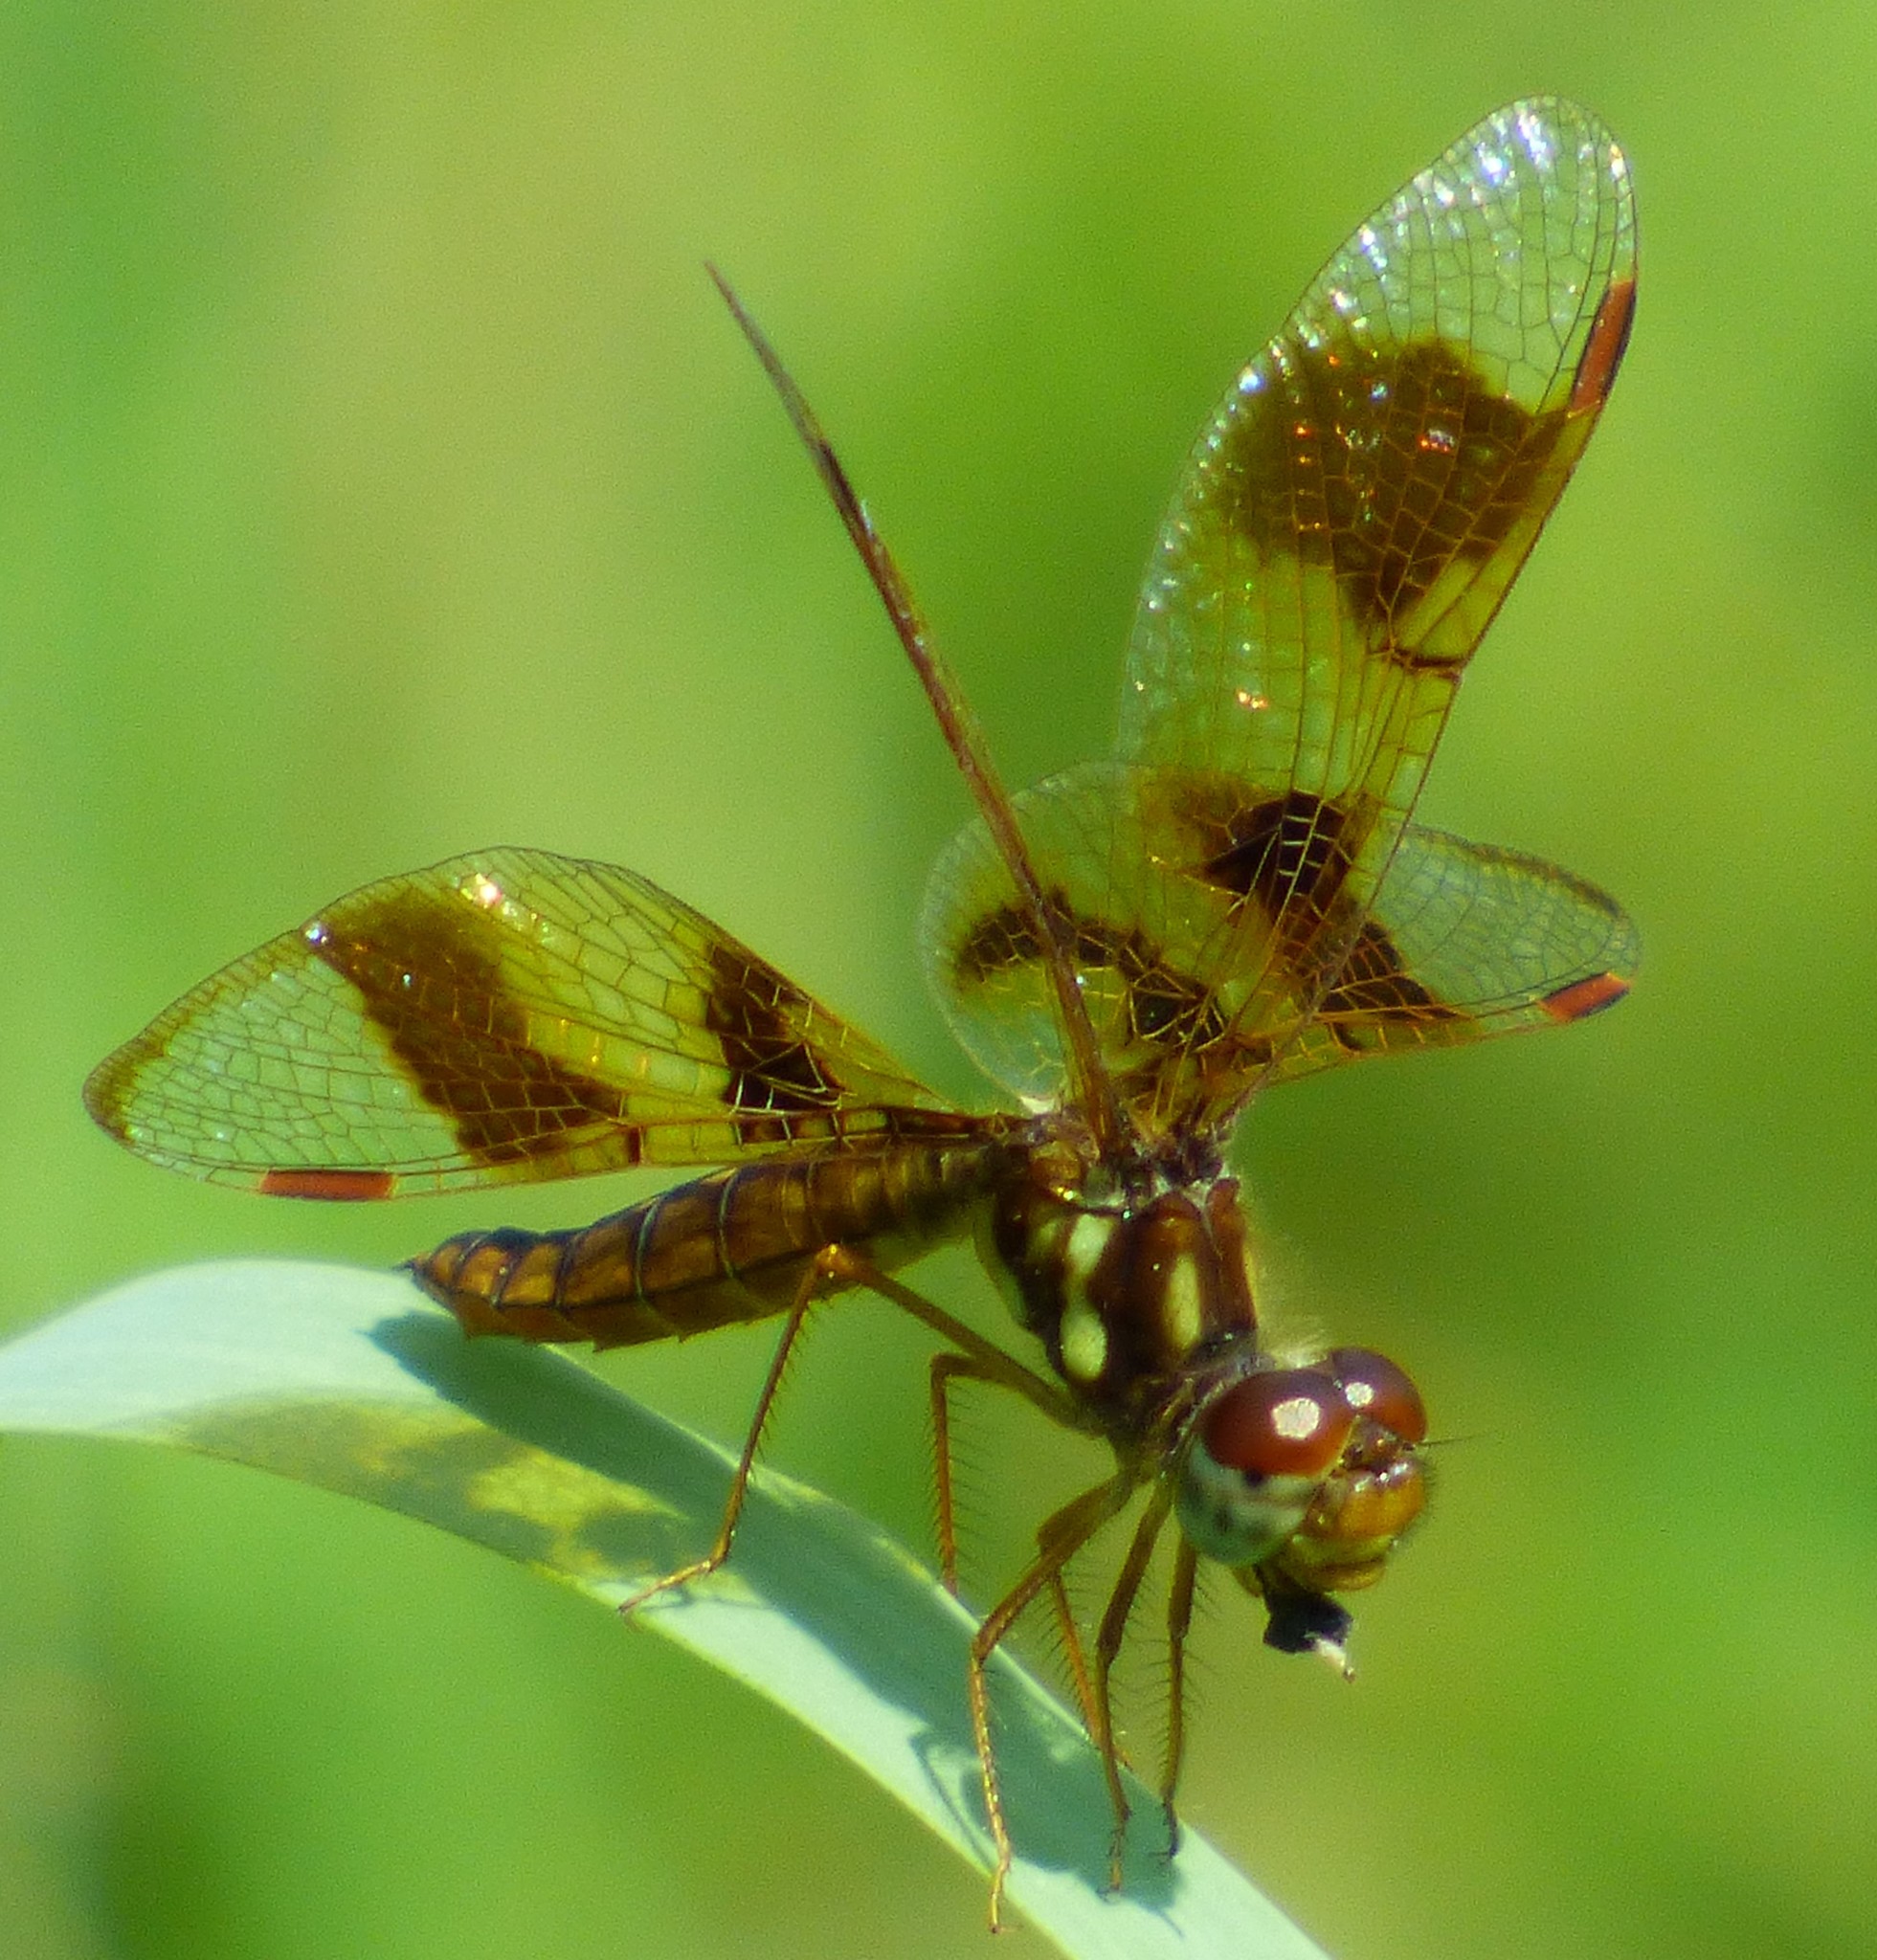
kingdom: Animalia
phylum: Arthropoda
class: Insecta
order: Odonata
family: Libellulidae
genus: Perithemis
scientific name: Perithemis tenera
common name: Eastern amberwing
